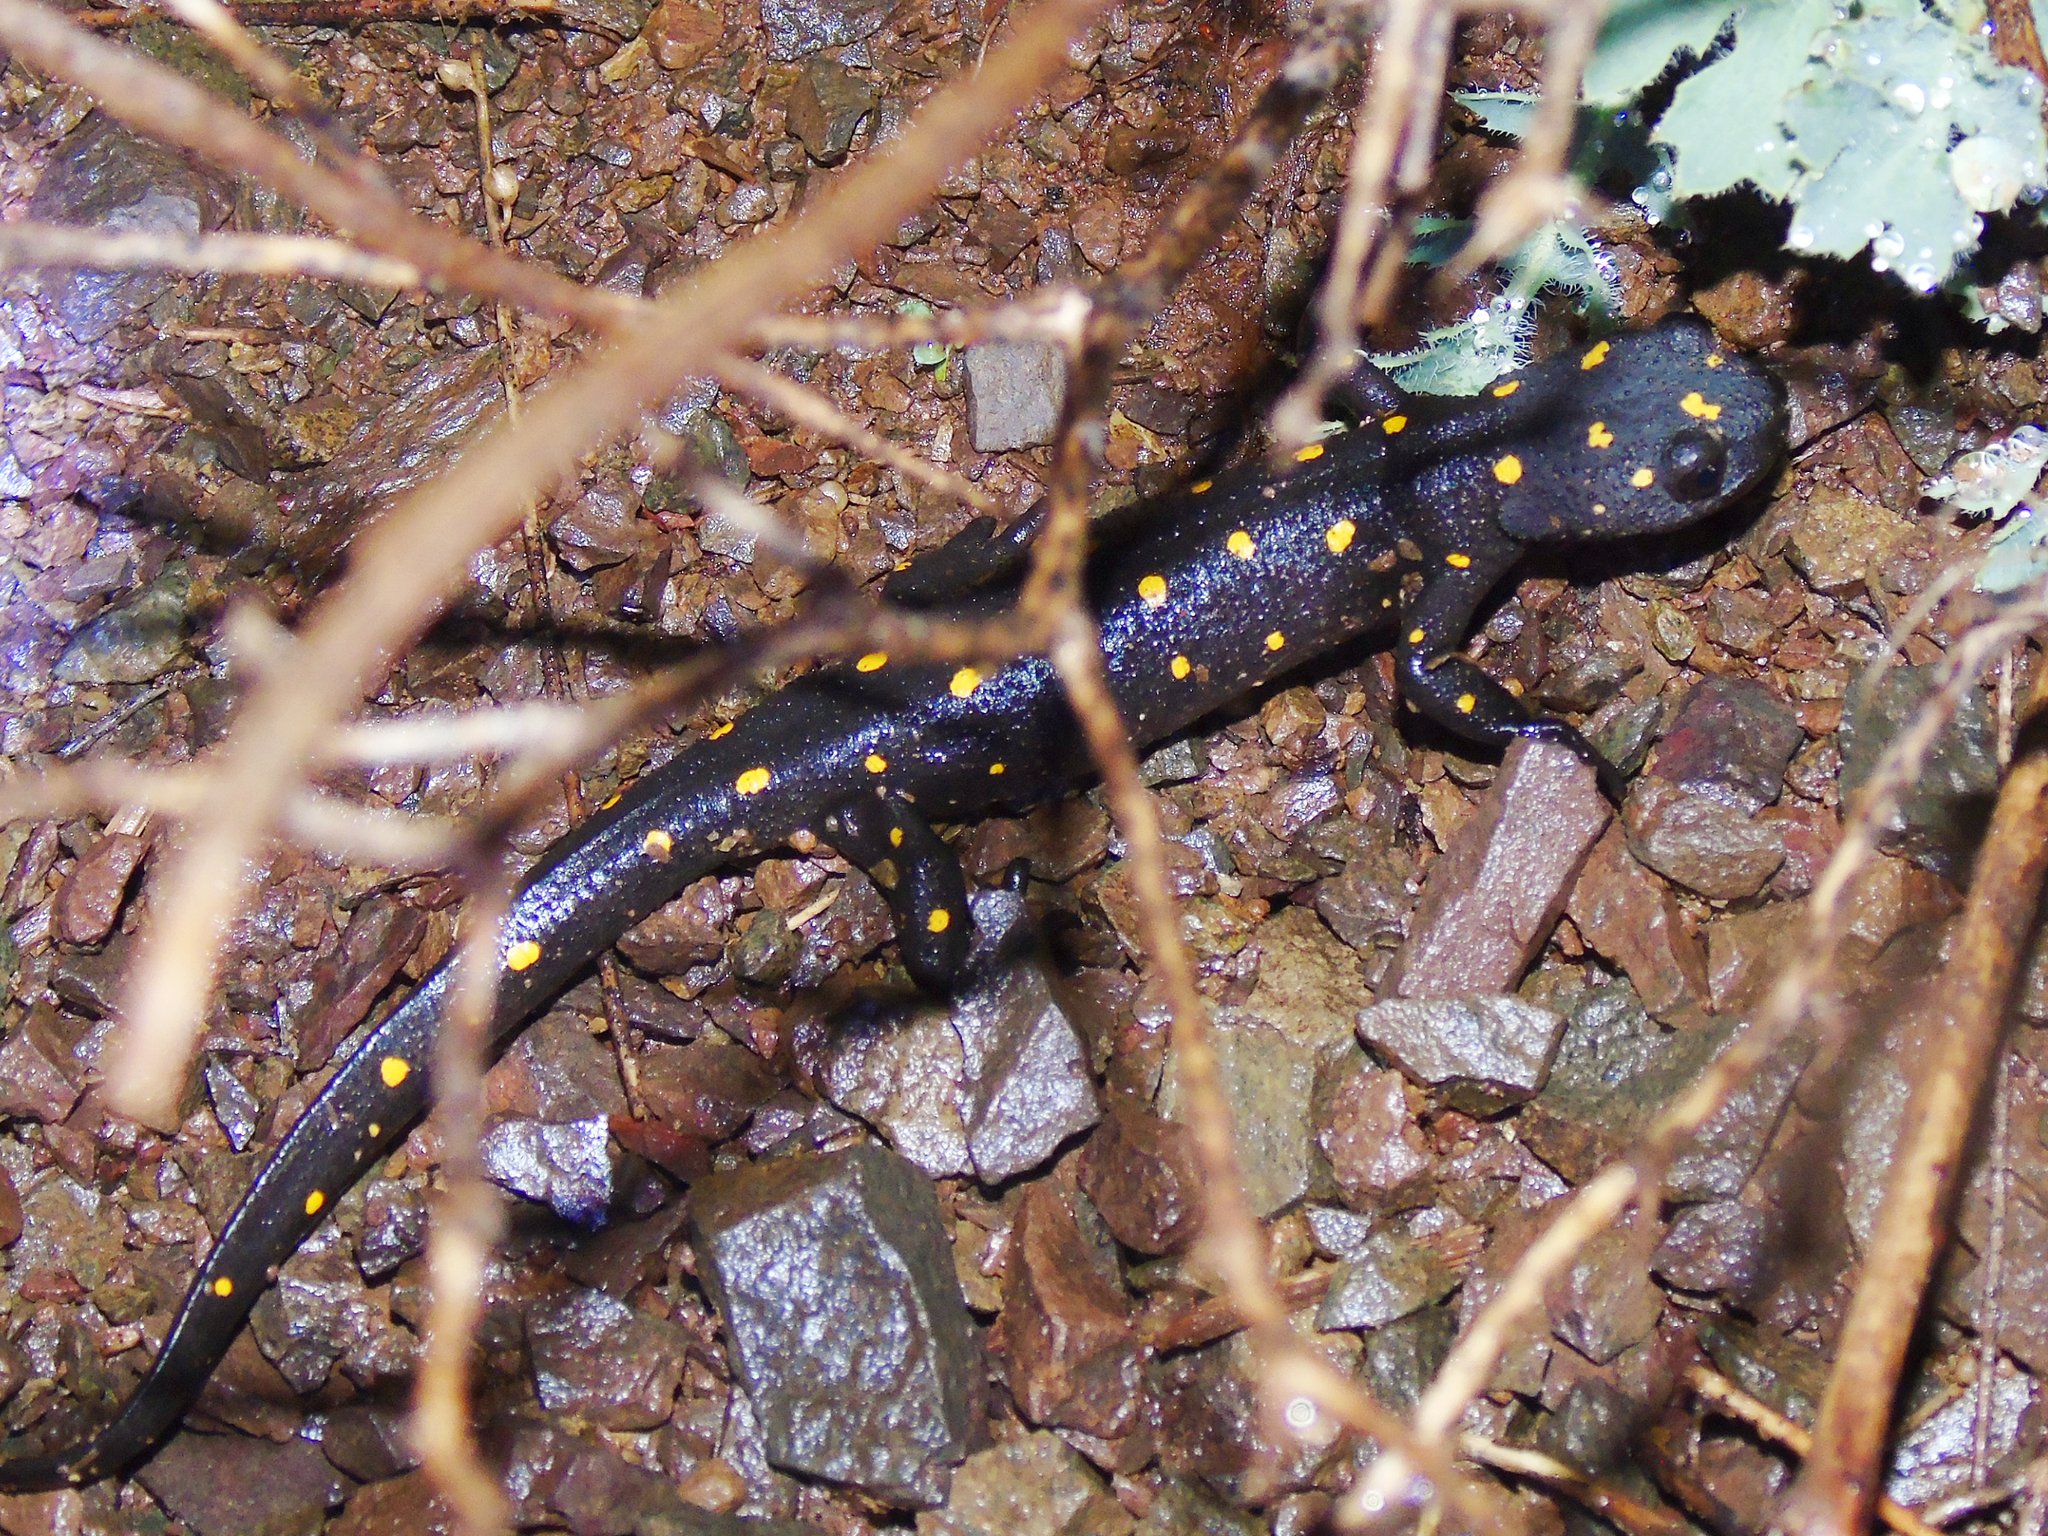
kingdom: Animalia
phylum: Chordata
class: Amphibia
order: Caudata
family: Salamandridae
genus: Neurergus
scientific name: Neurergus barani
